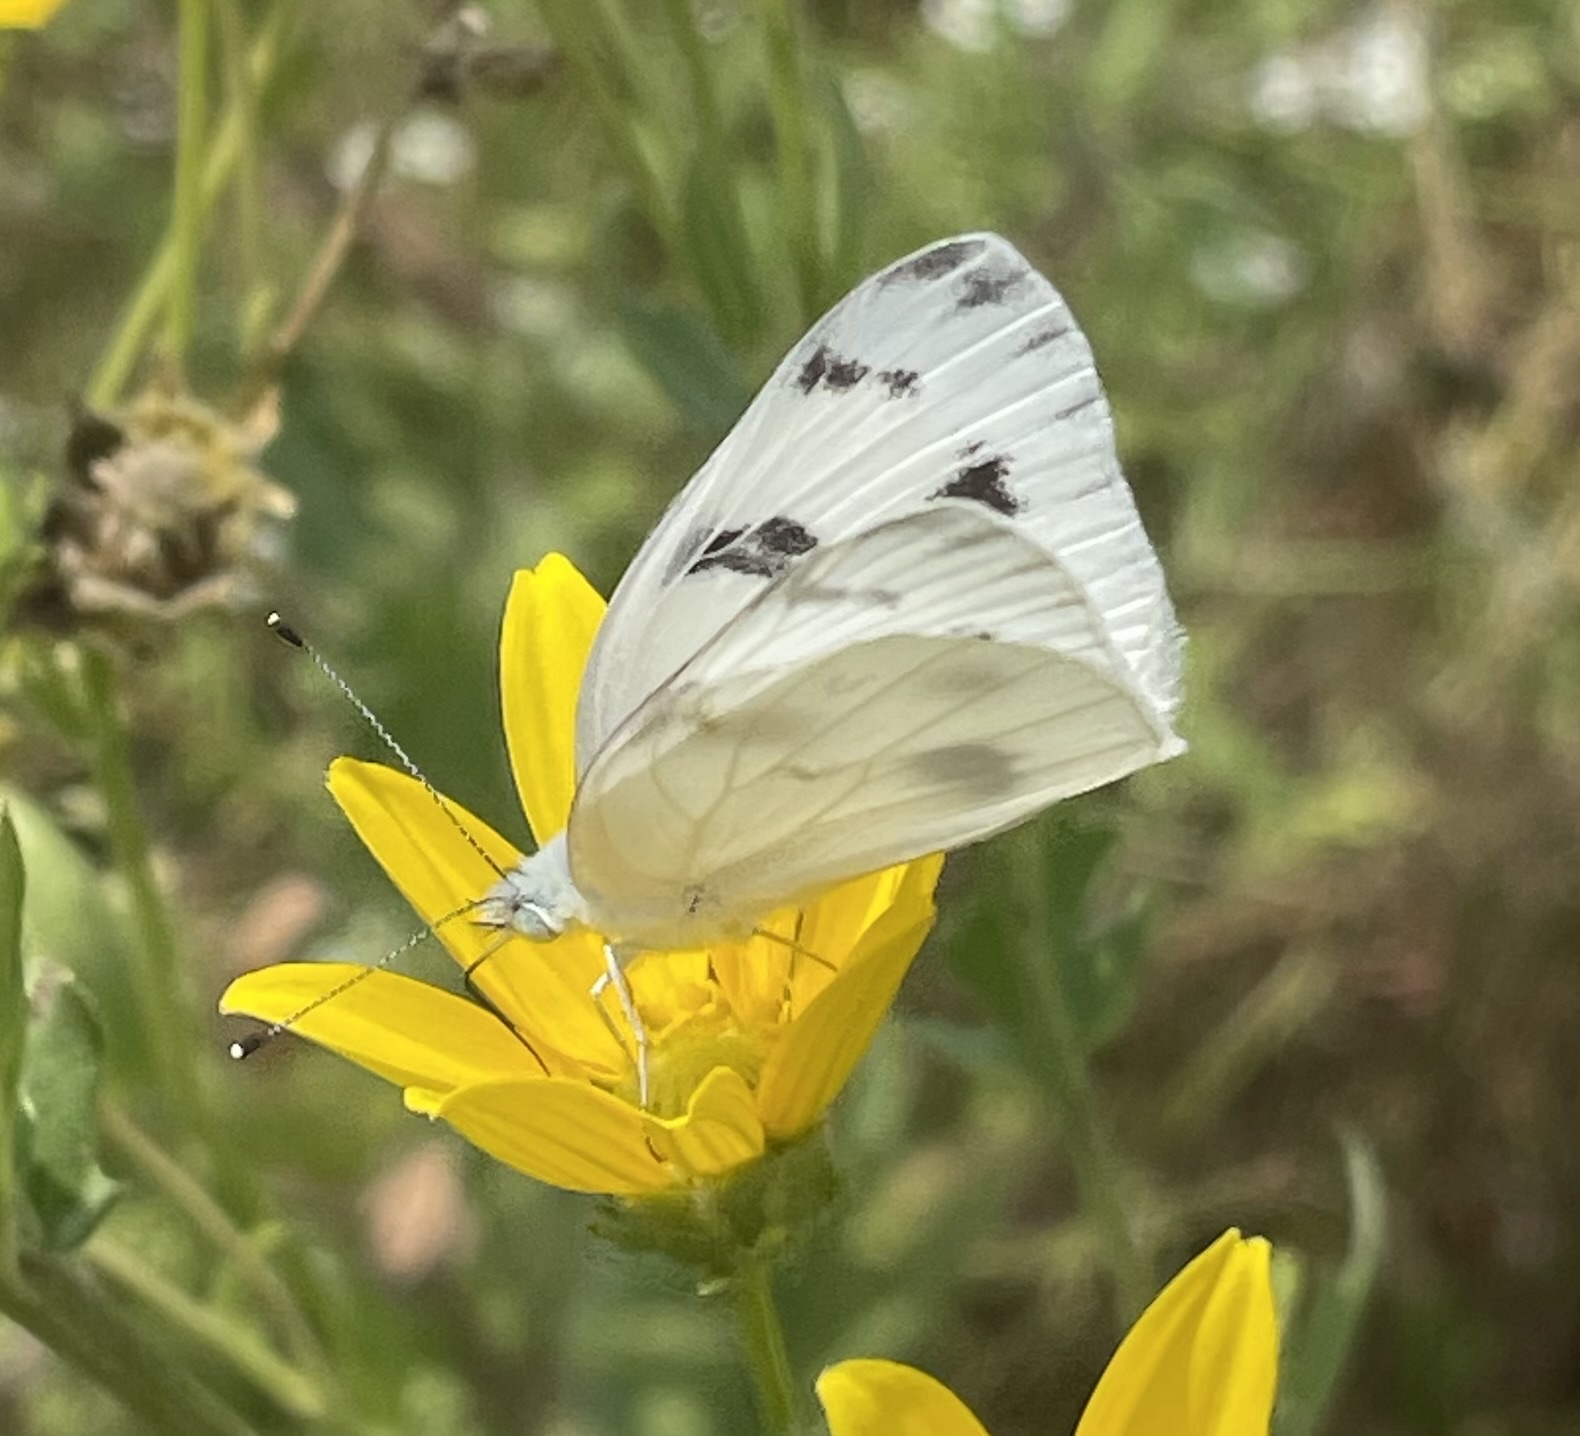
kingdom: Animalia
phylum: Arthropoda
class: Insecta
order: Lepidoptera
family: Pieridae
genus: Pontia
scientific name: Pontia protodice
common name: Checkered white
